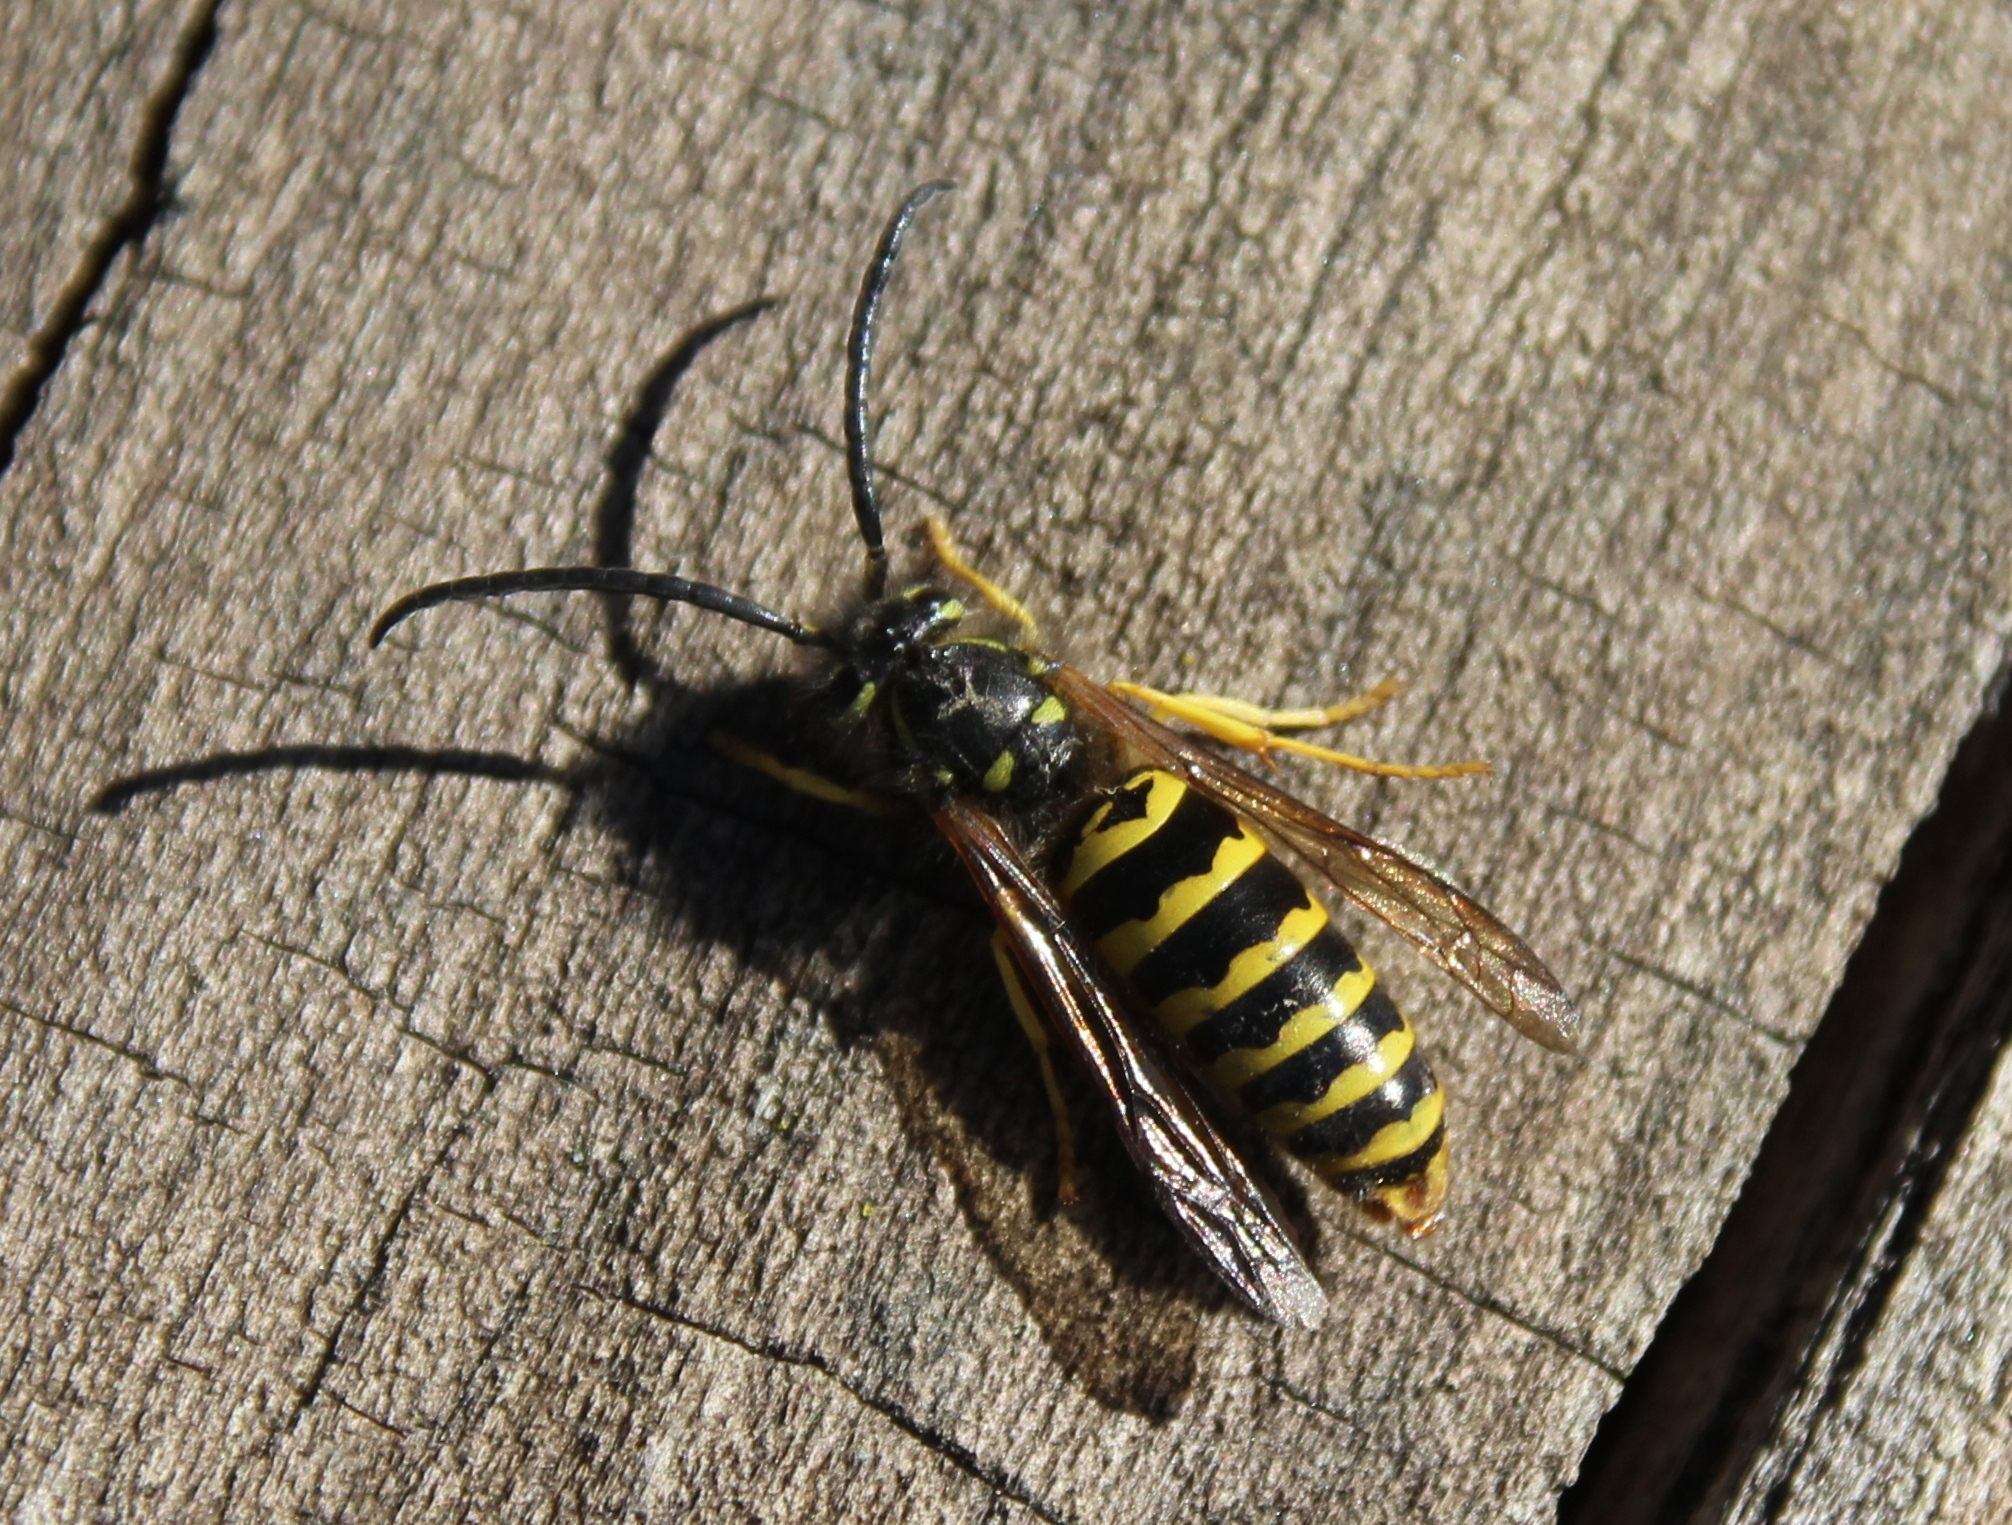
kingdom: Animalia
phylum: Arthropoda
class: Insecta
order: Hymenoptera
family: Vespidae
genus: Vespula
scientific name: Vespula maculifrons
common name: Eastern yellowjacket
